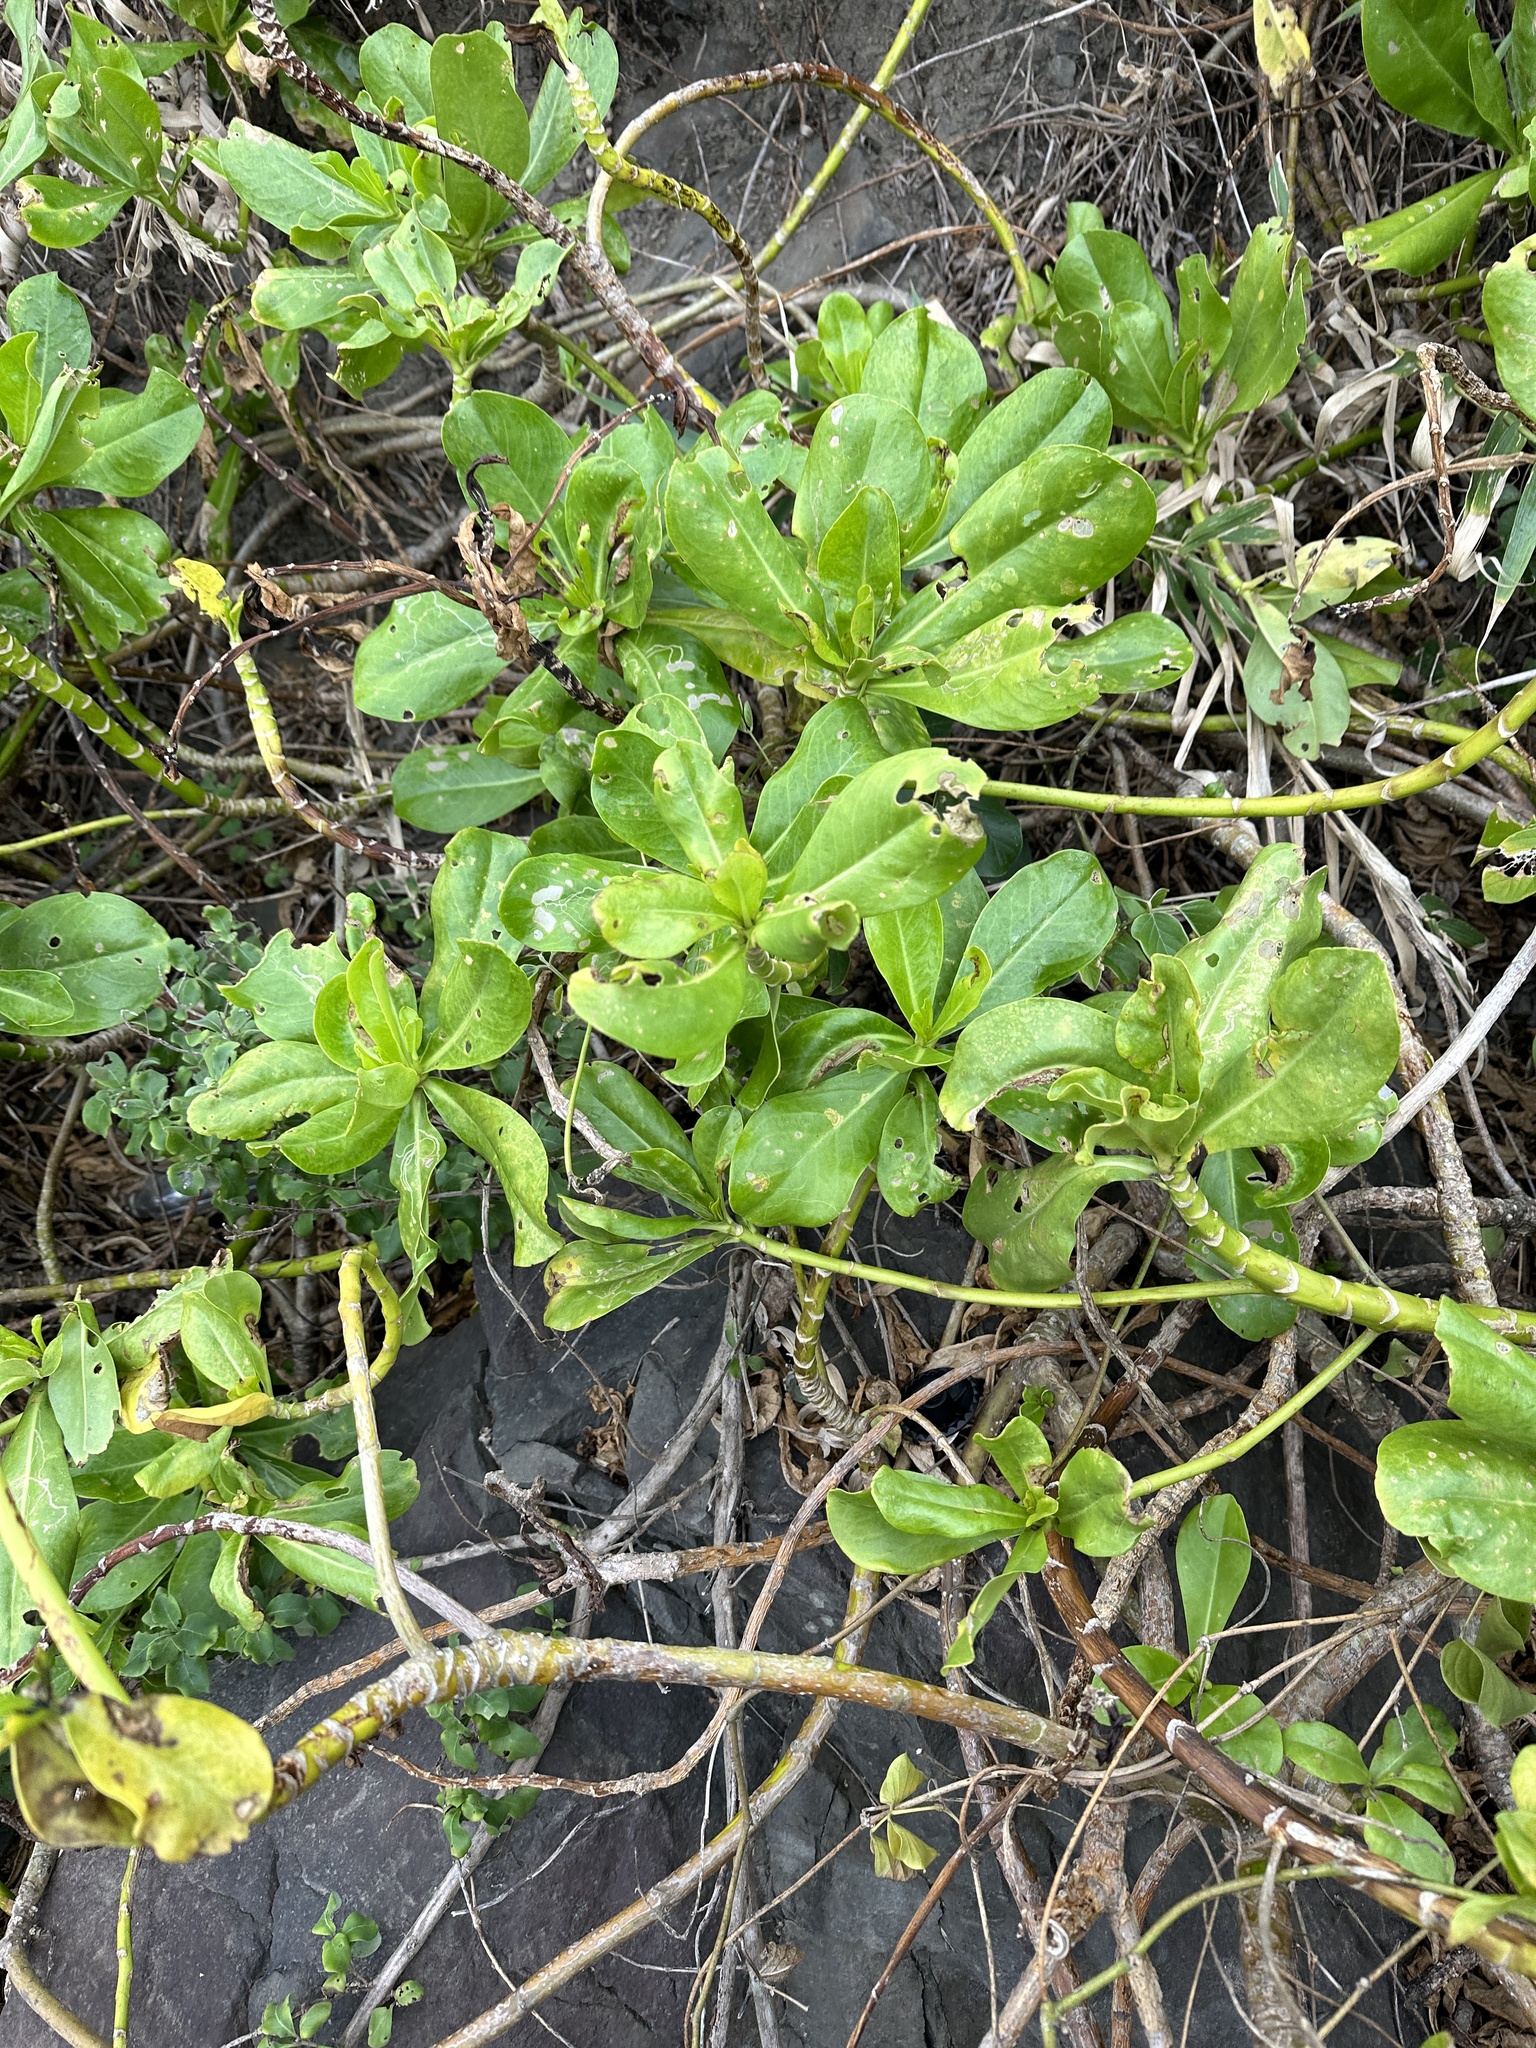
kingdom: Plantae
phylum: Tracheophyta
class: Magnoliopsida
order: Asterales
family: Goodeniaceae
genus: Scaevola
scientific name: Scaevola taccada
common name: Sea lettucetree
